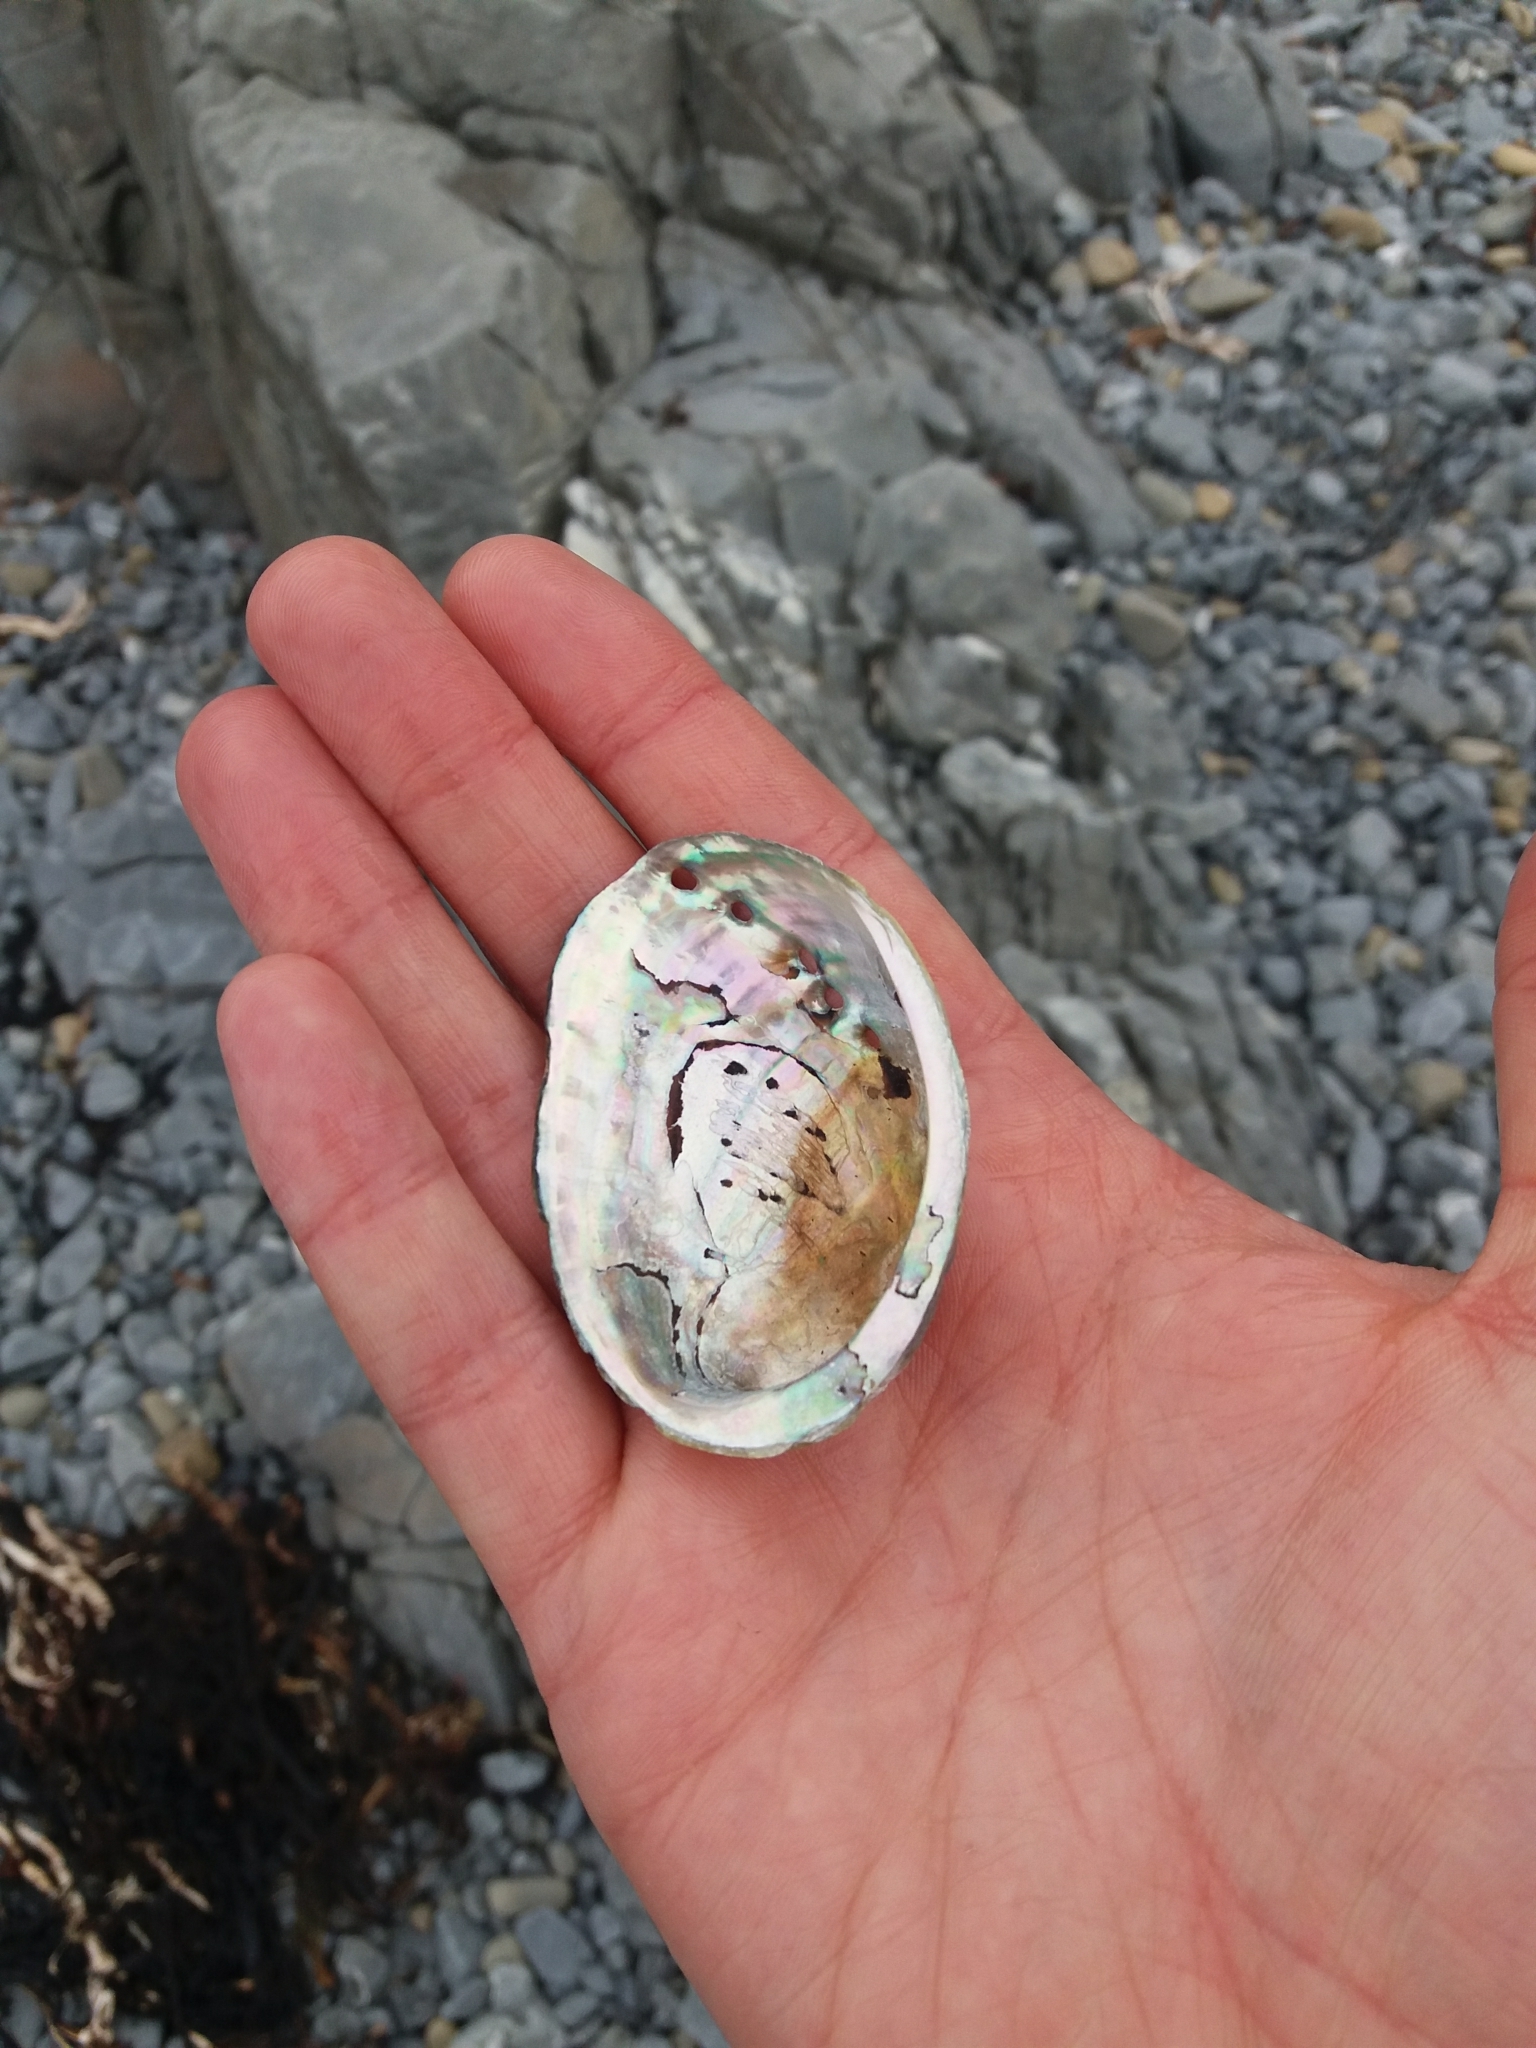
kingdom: Animalia
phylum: Mollusca
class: Gastropoda
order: Lepetellida
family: Haliotidae
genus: Haliotis
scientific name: Haliotis iris
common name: Abalone
